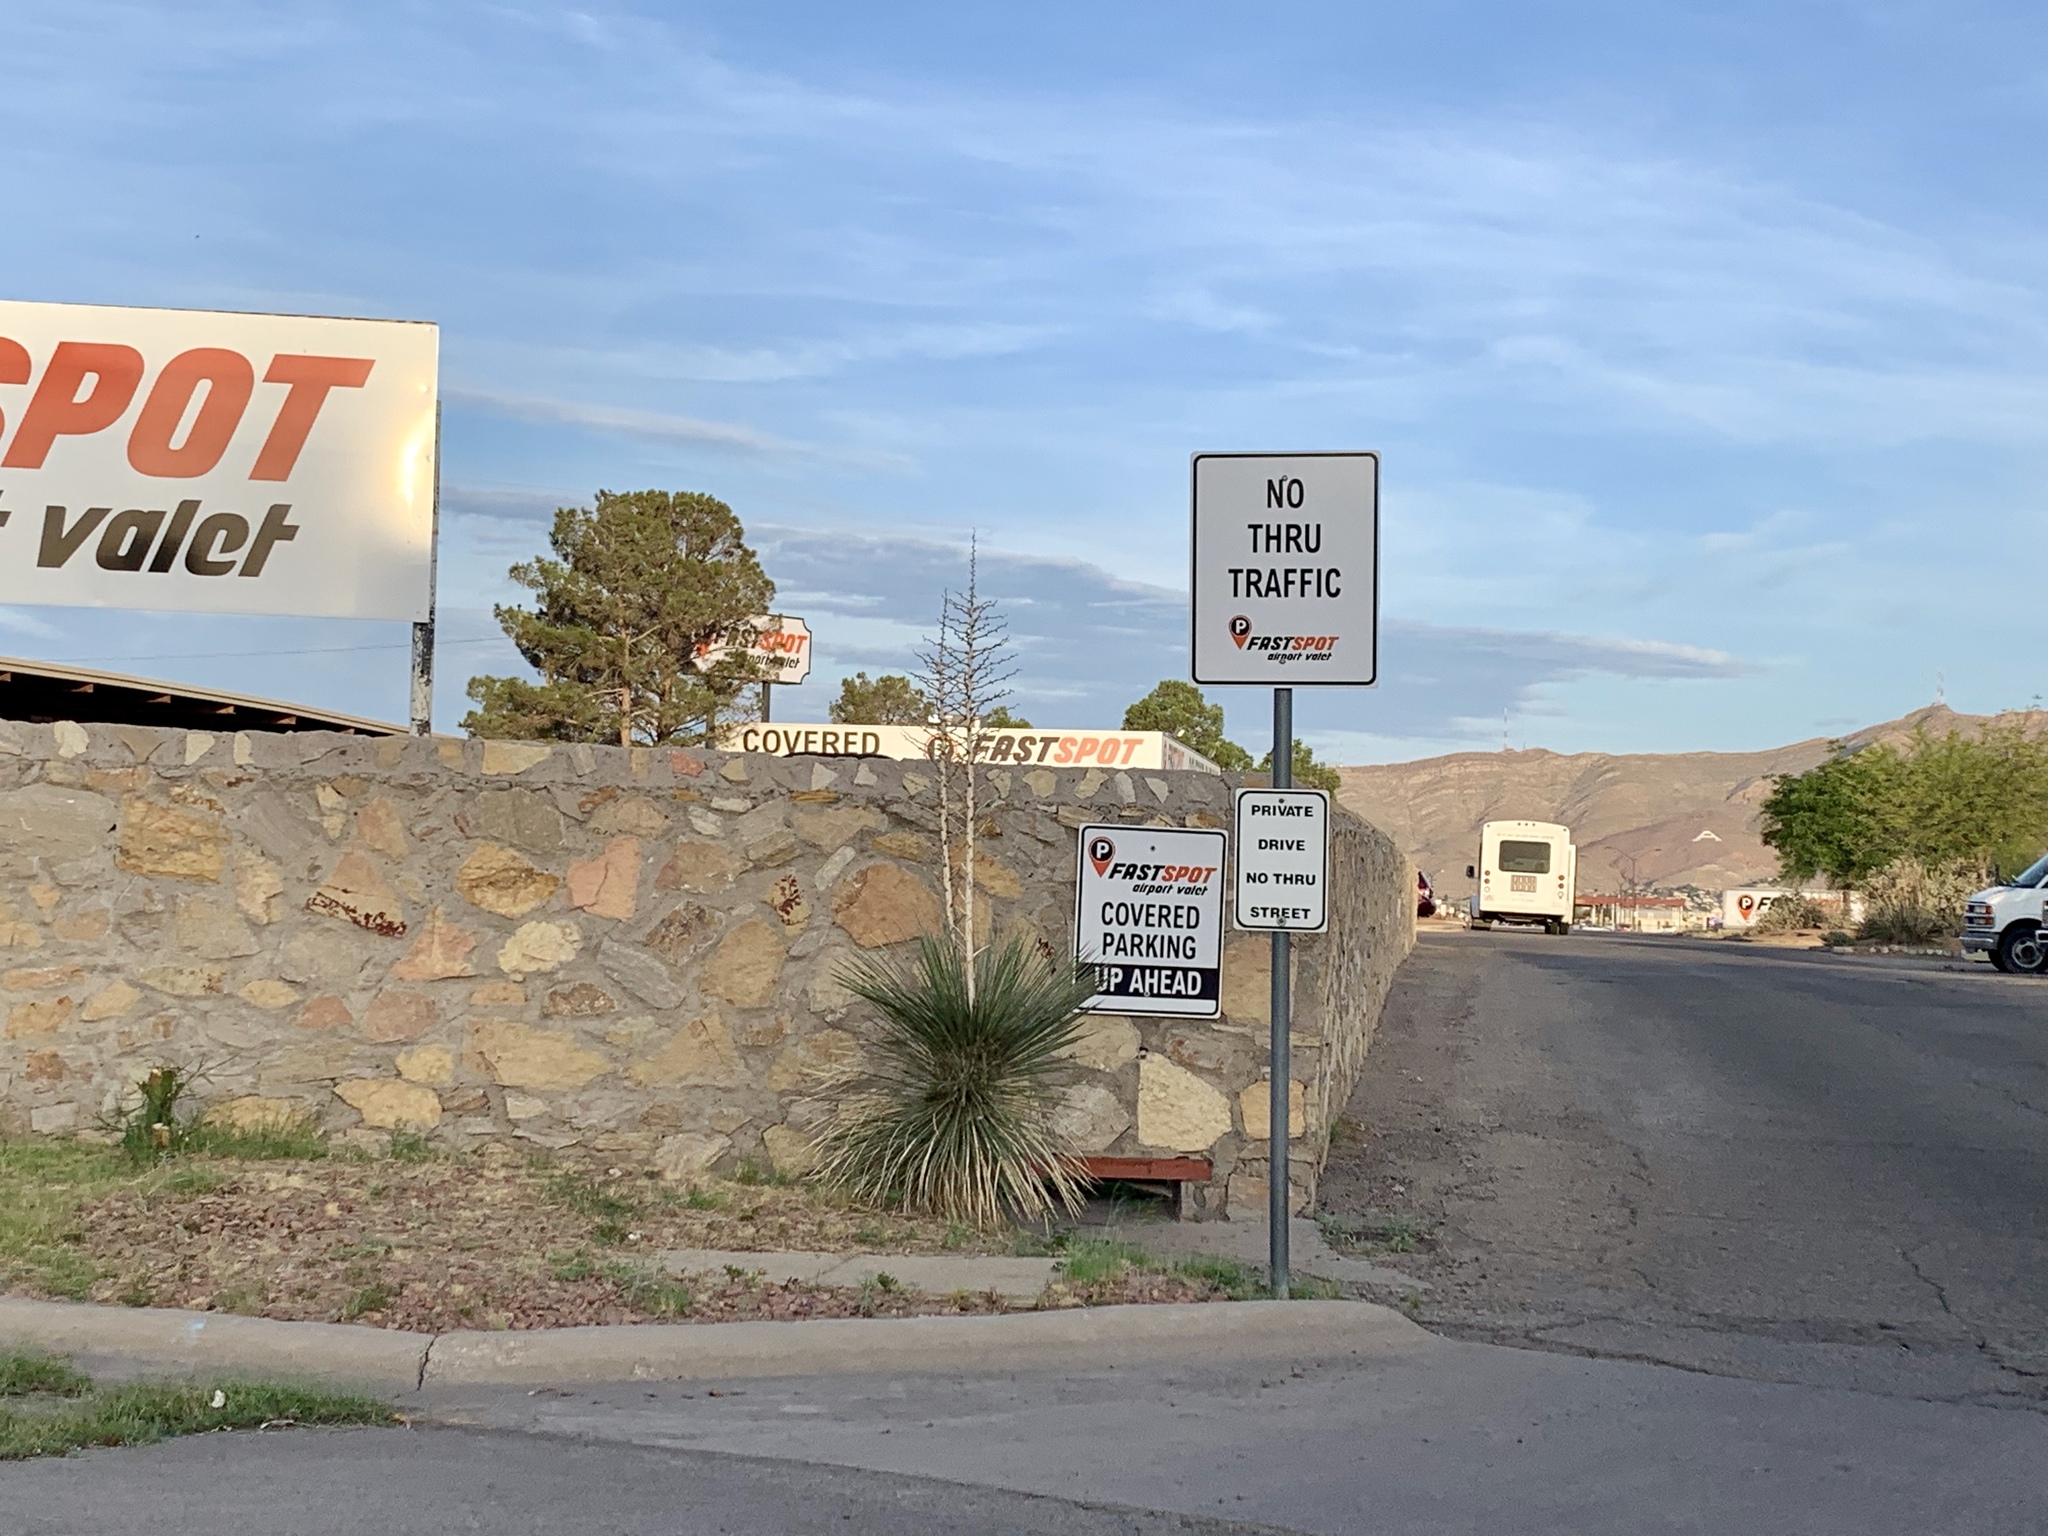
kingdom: Plantae
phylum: Tracheophyta
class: Liliopsida
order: Asparagales
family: Asparagaceae
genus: Yucca
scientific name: Yucca elata
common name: Palmella
